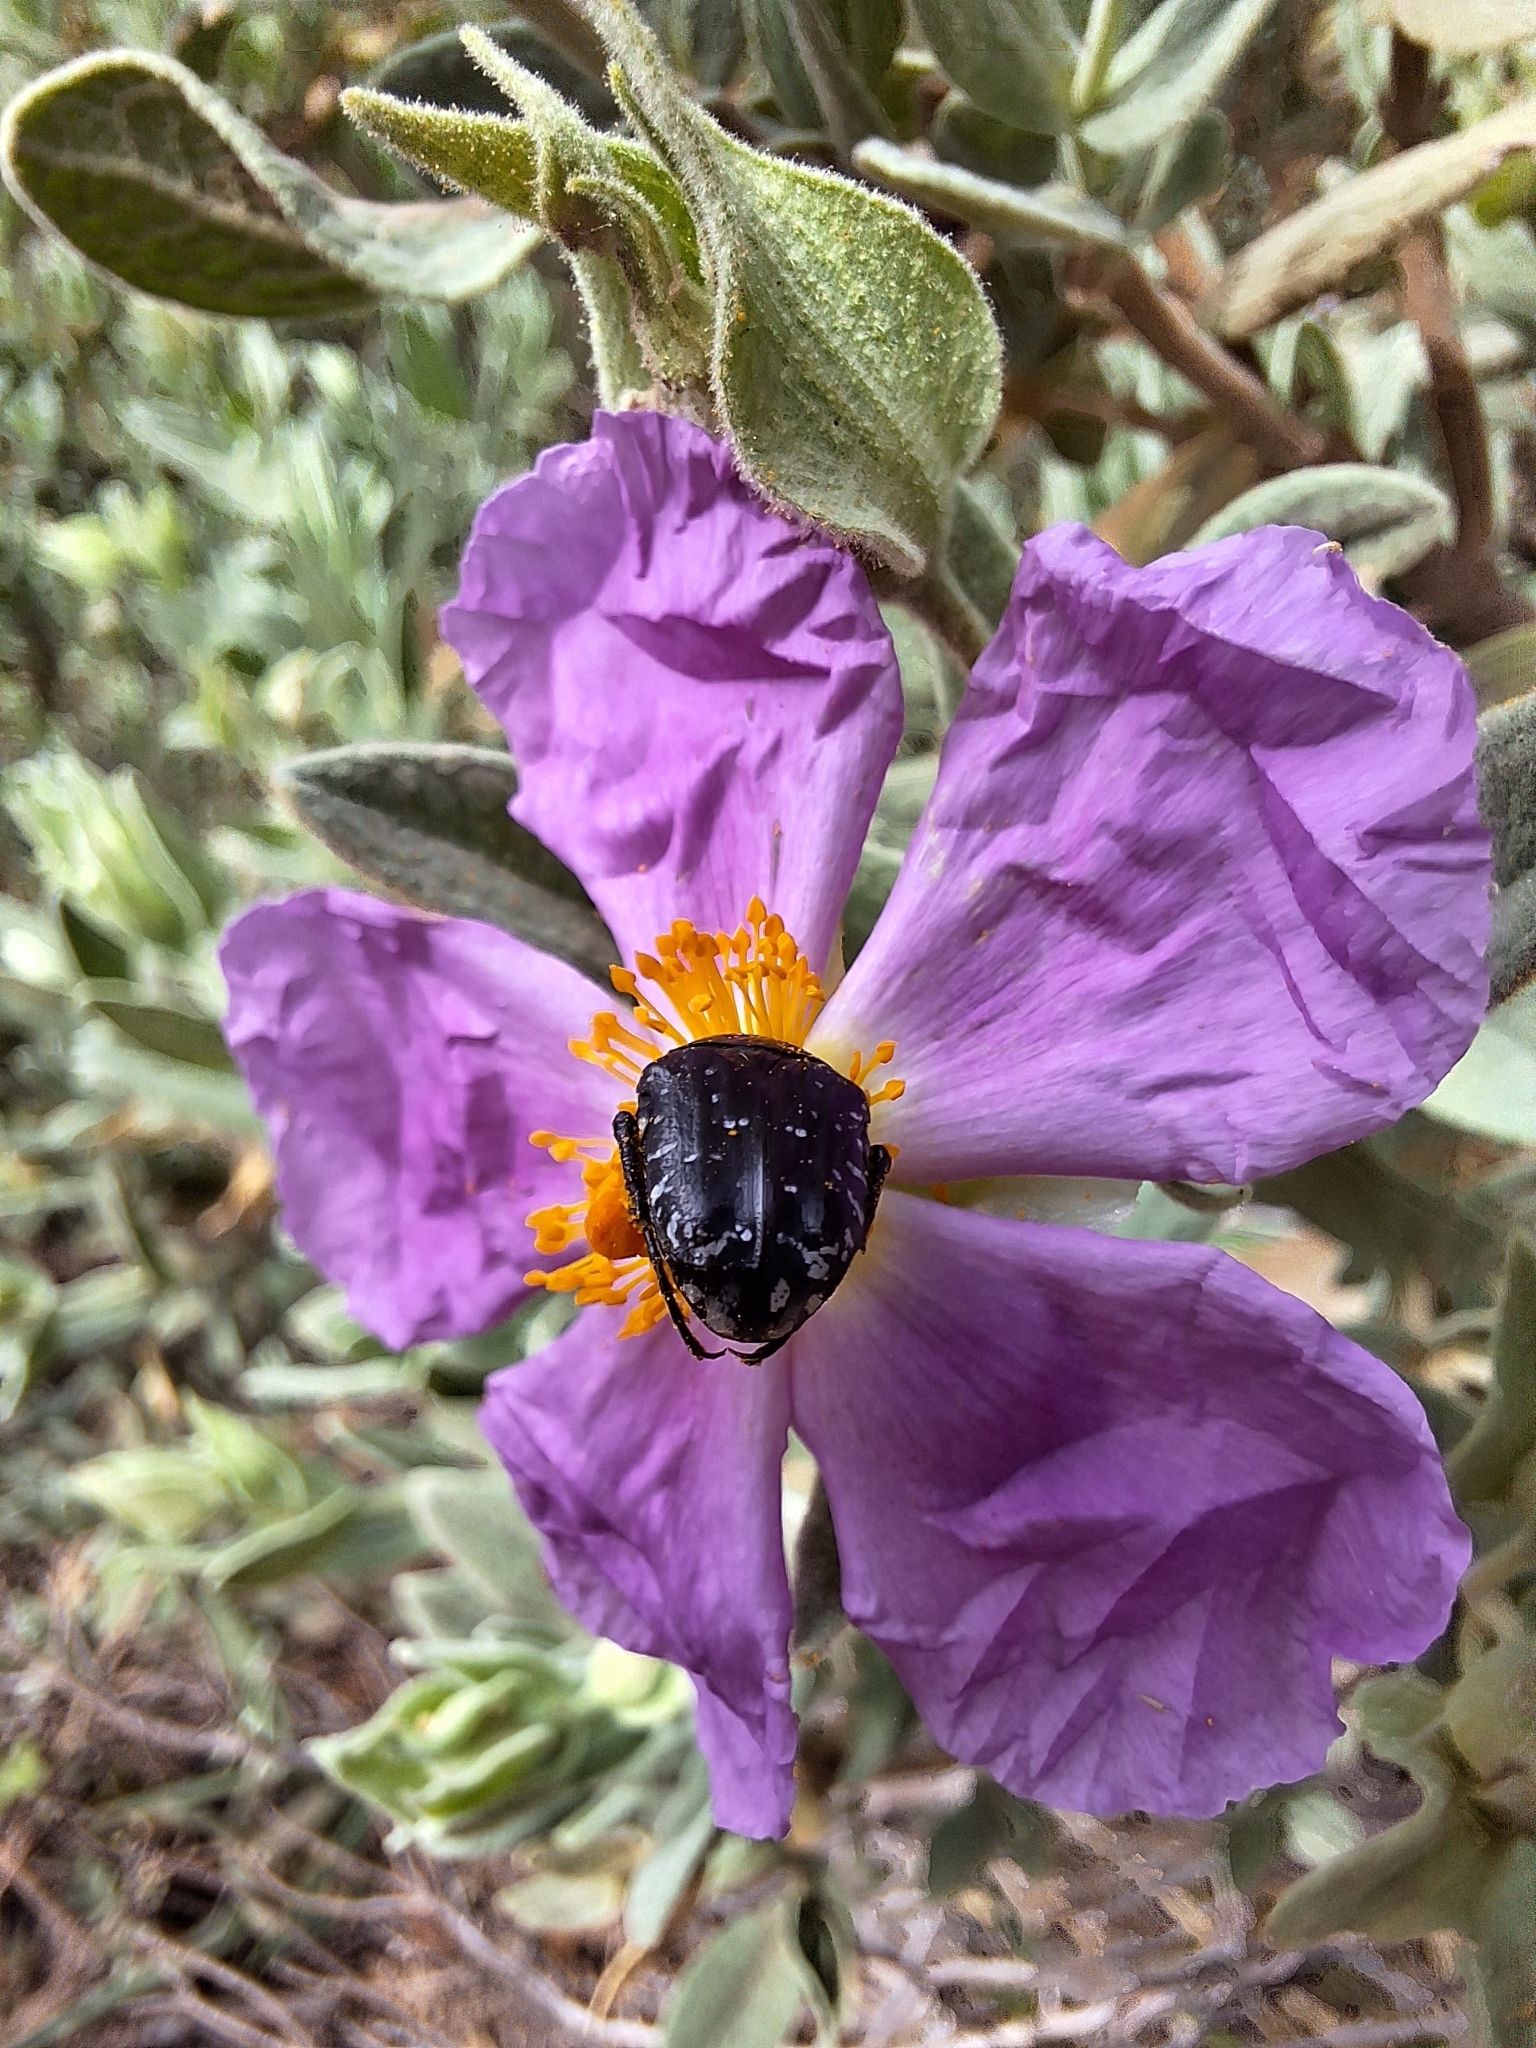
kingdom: Animalia
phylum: Arthropoda
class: Insecta
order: Coleoptera
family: Scarabaeidae
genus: Oxythyrea
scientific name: Oxythyrea funesta
